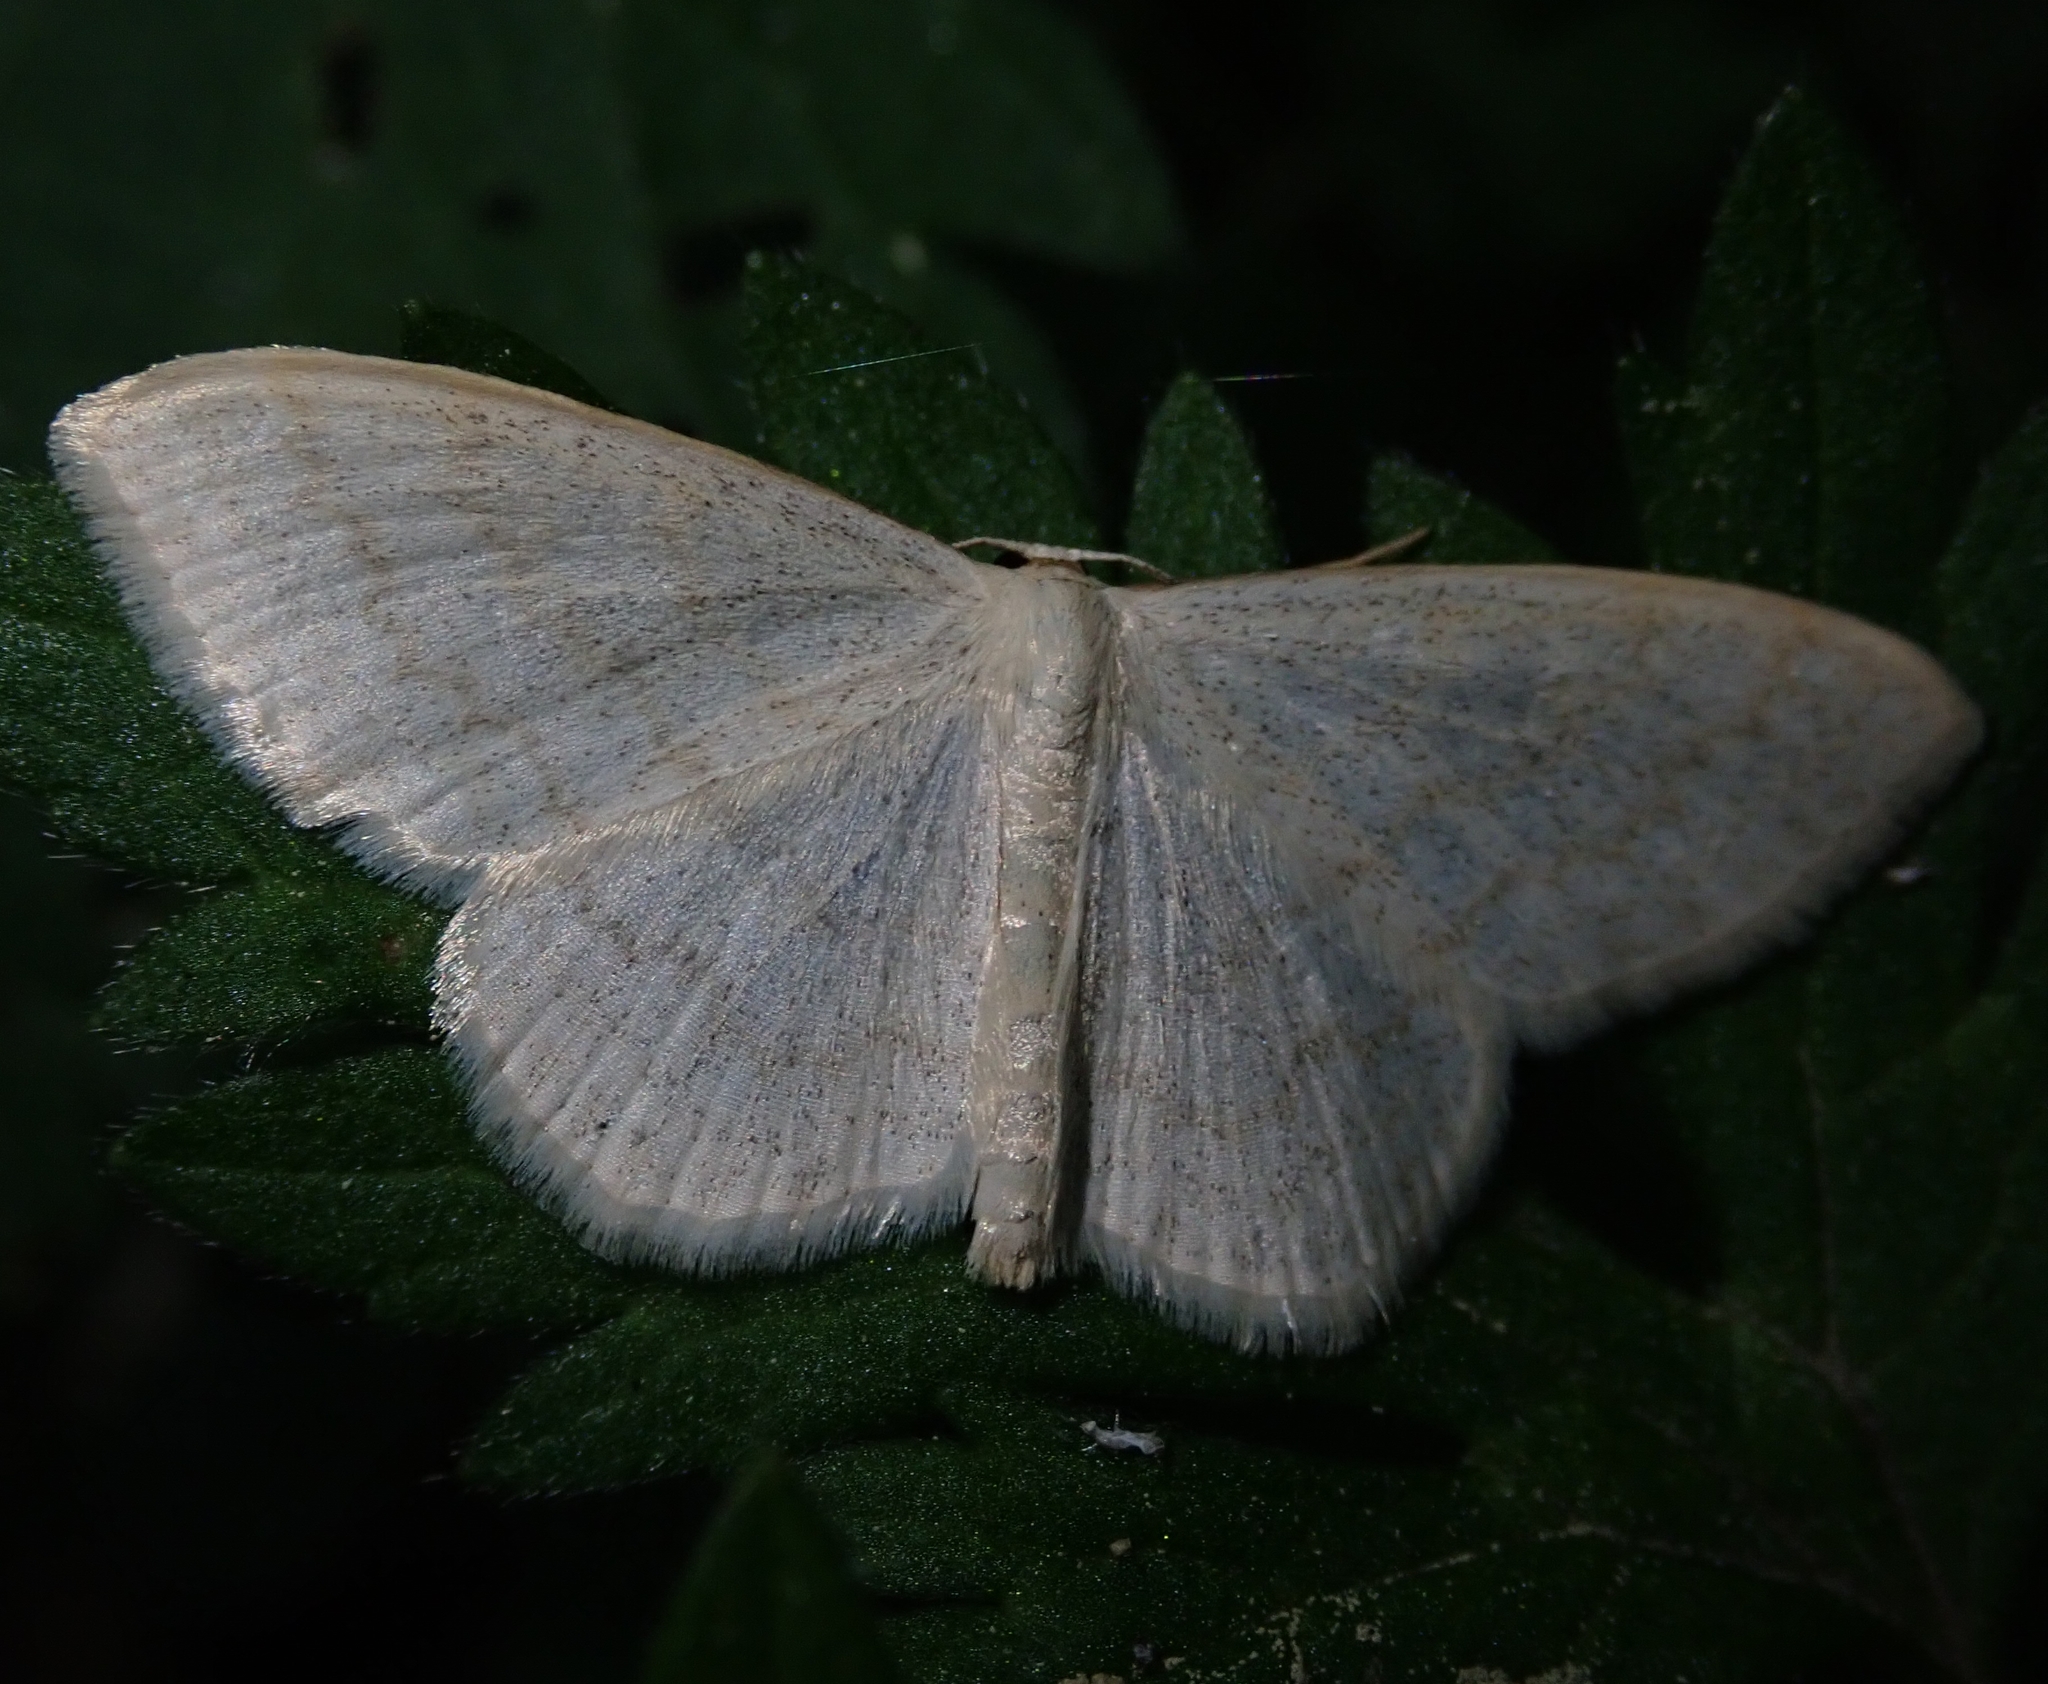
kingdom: Animalia
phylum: Arthropoda
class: Insecta
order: Lepidoptera
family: Geometridae
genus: Scopula
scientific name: Scopula floslactata
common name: Cream wave
